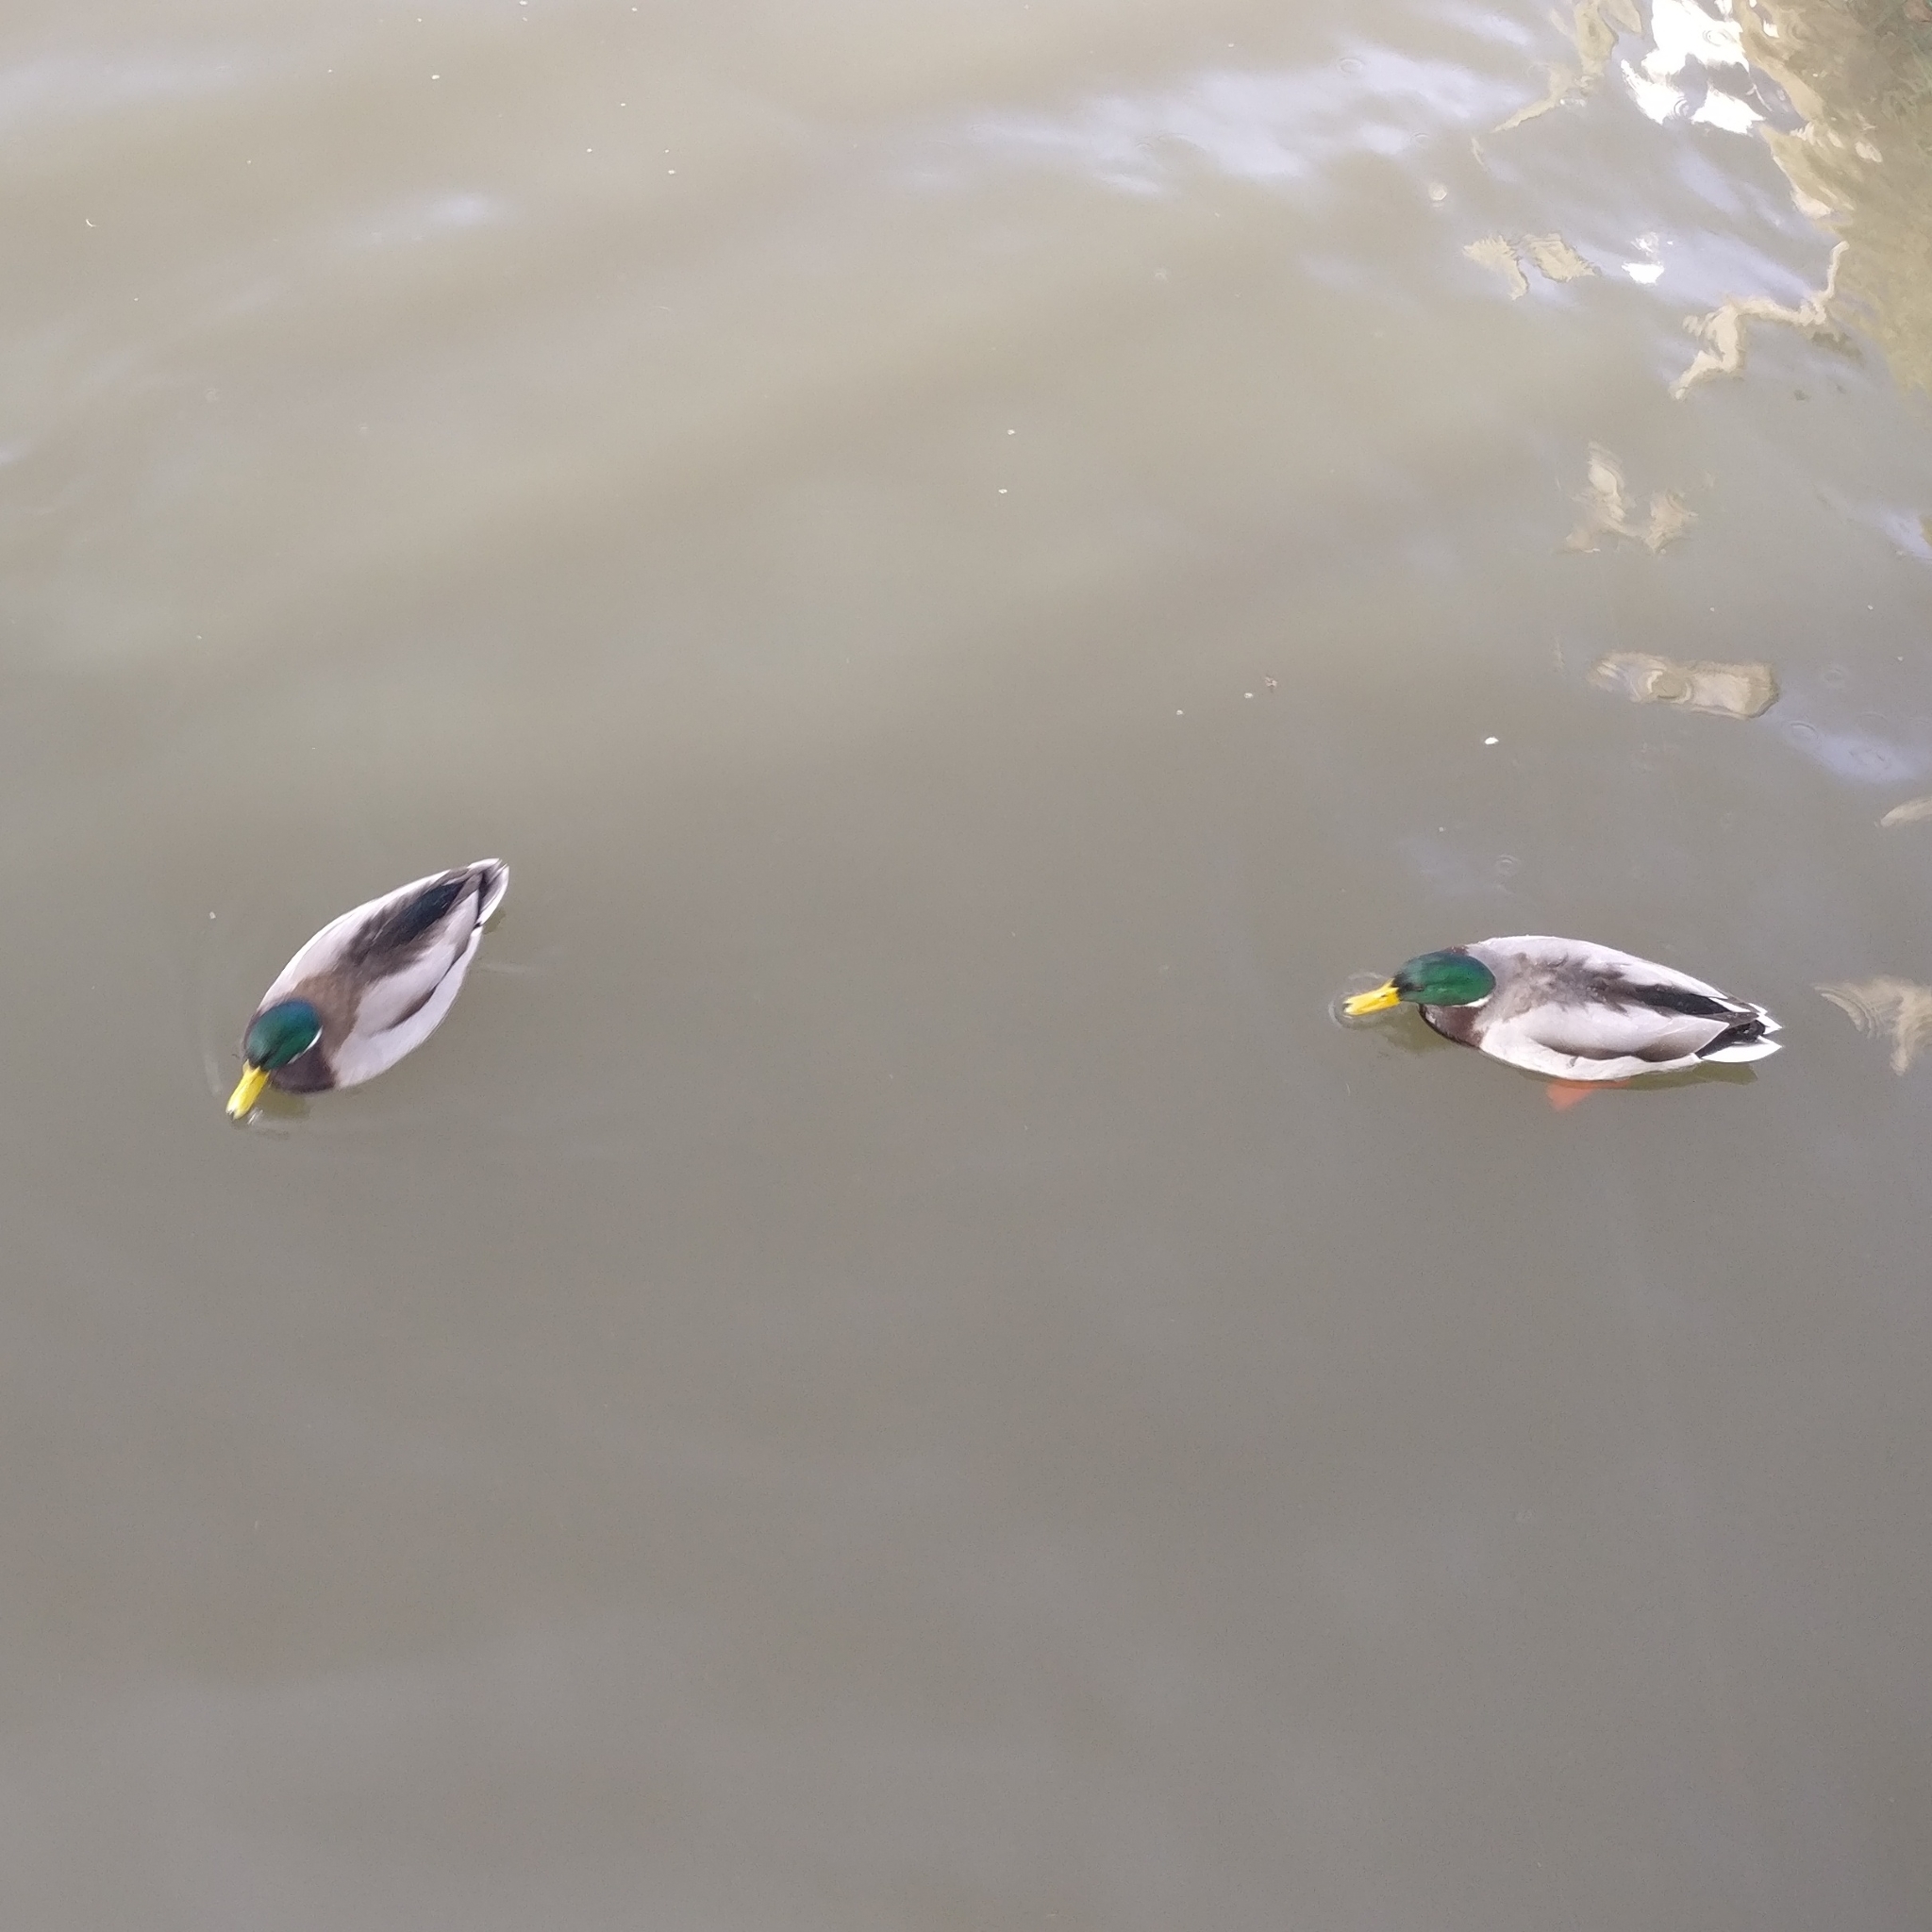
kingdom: Animalia
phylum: Chordata
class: Aves
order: Anseriformes
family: Anatidae
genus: Anas
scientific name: Anas platyrhynchos
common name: Mallard
